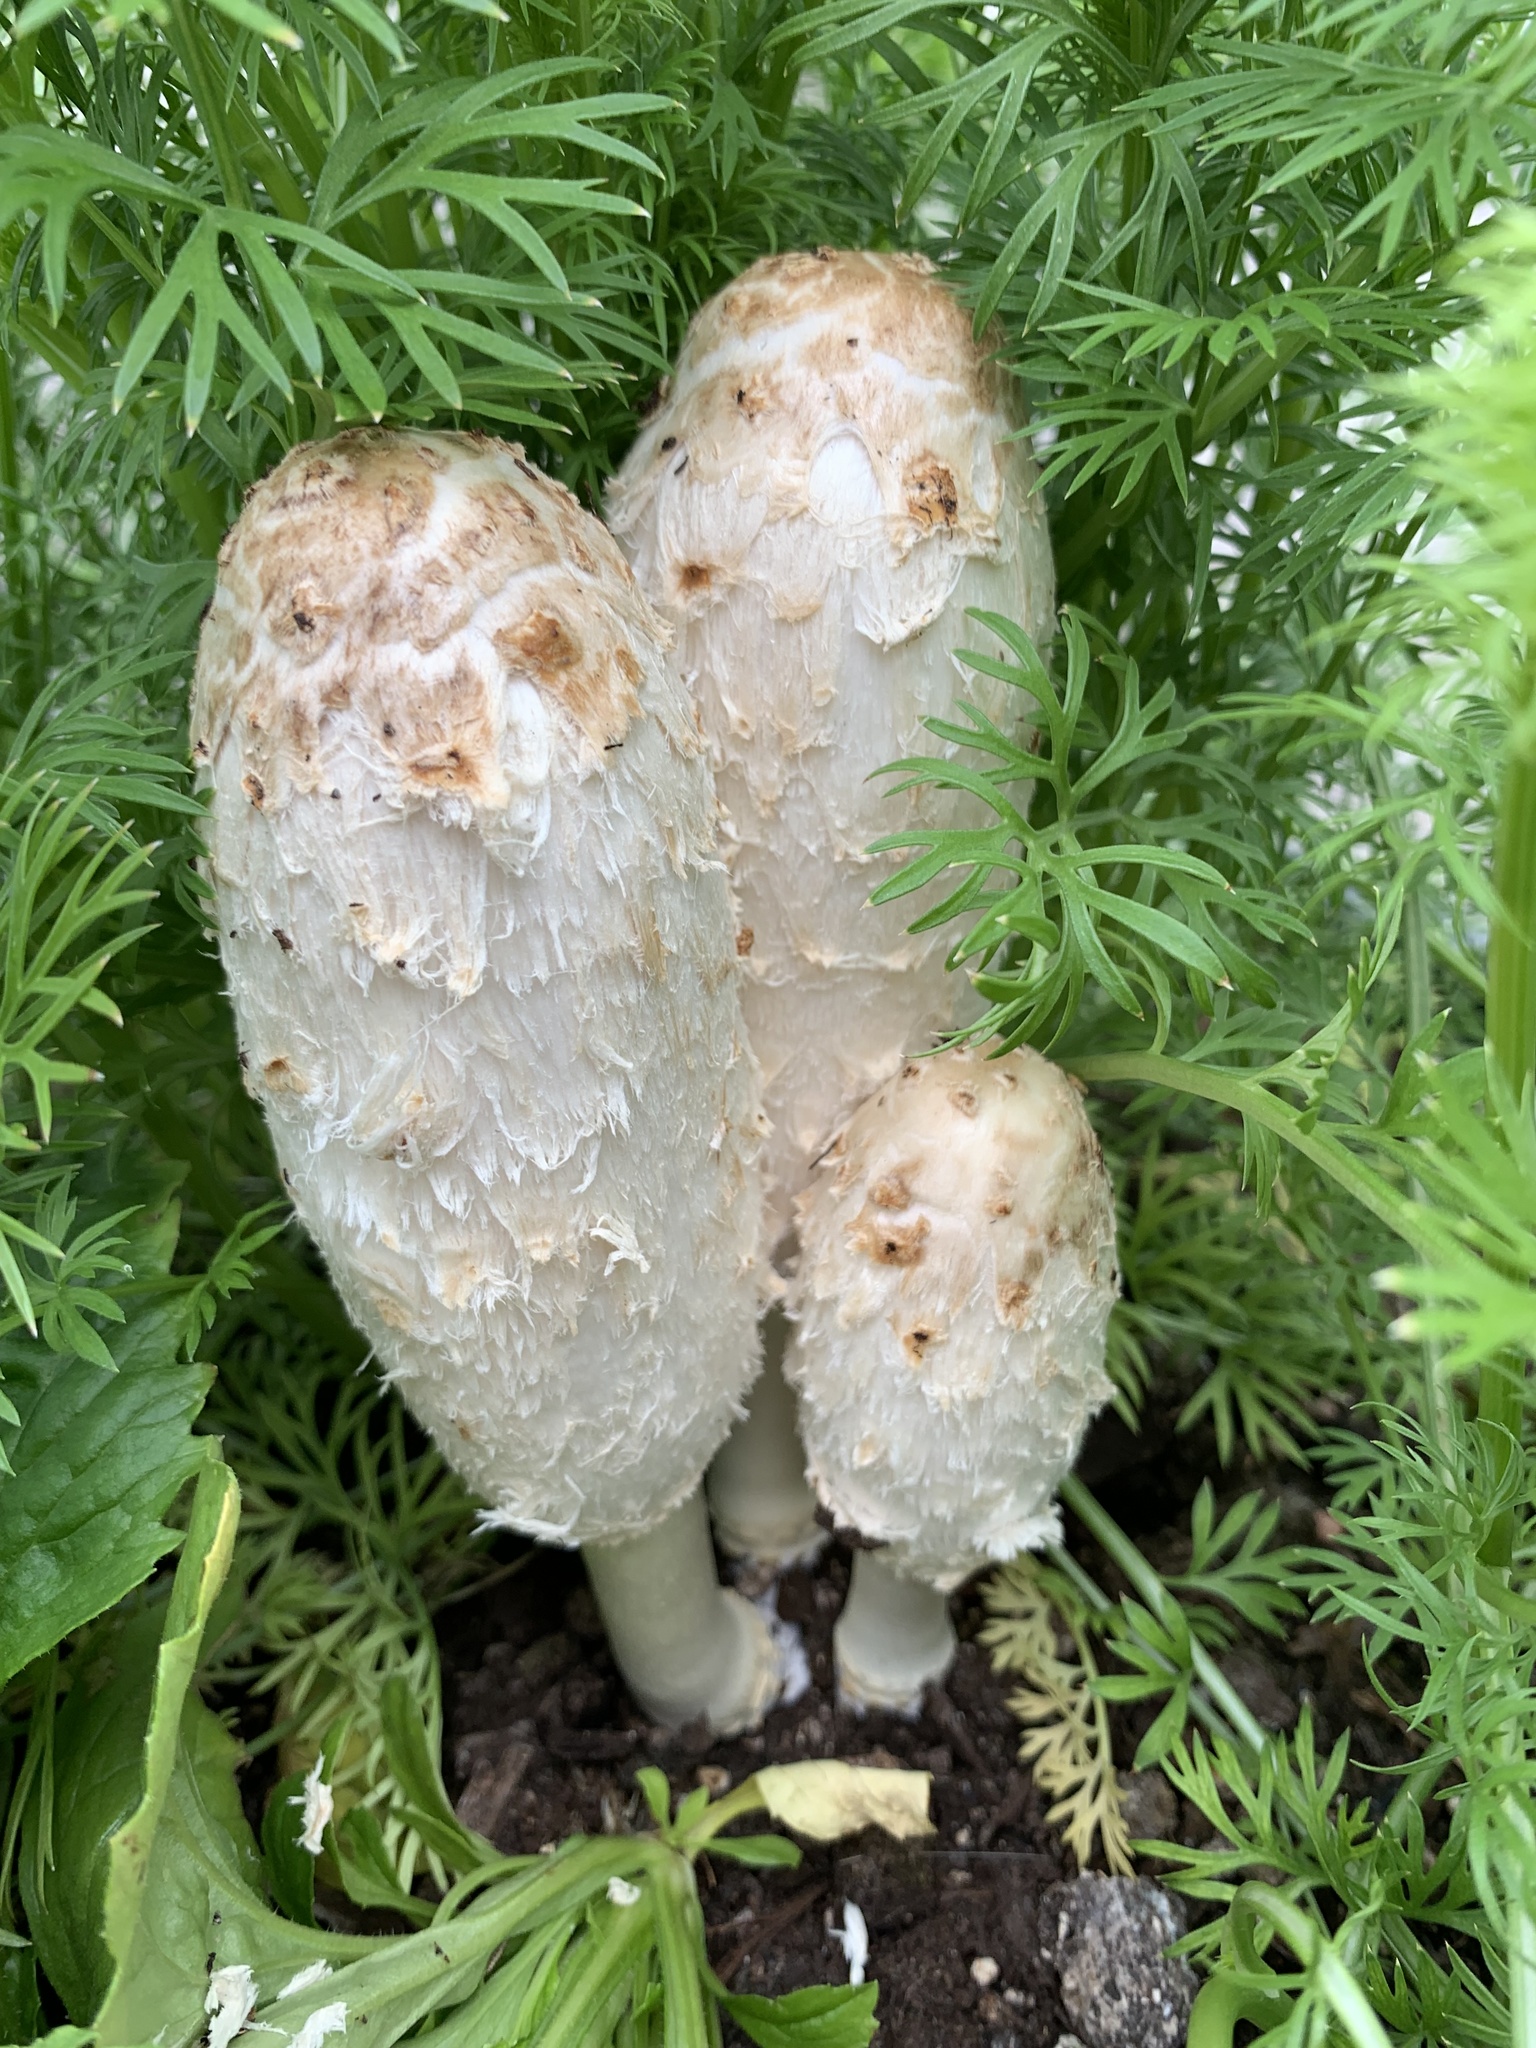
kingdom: Fungi
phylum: Basidiomycota
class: Agaricomycetes
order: Agaricales
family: Agaricaceae
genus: Coprinus
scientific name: Coprinus comatus
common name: Lawyer's wig
